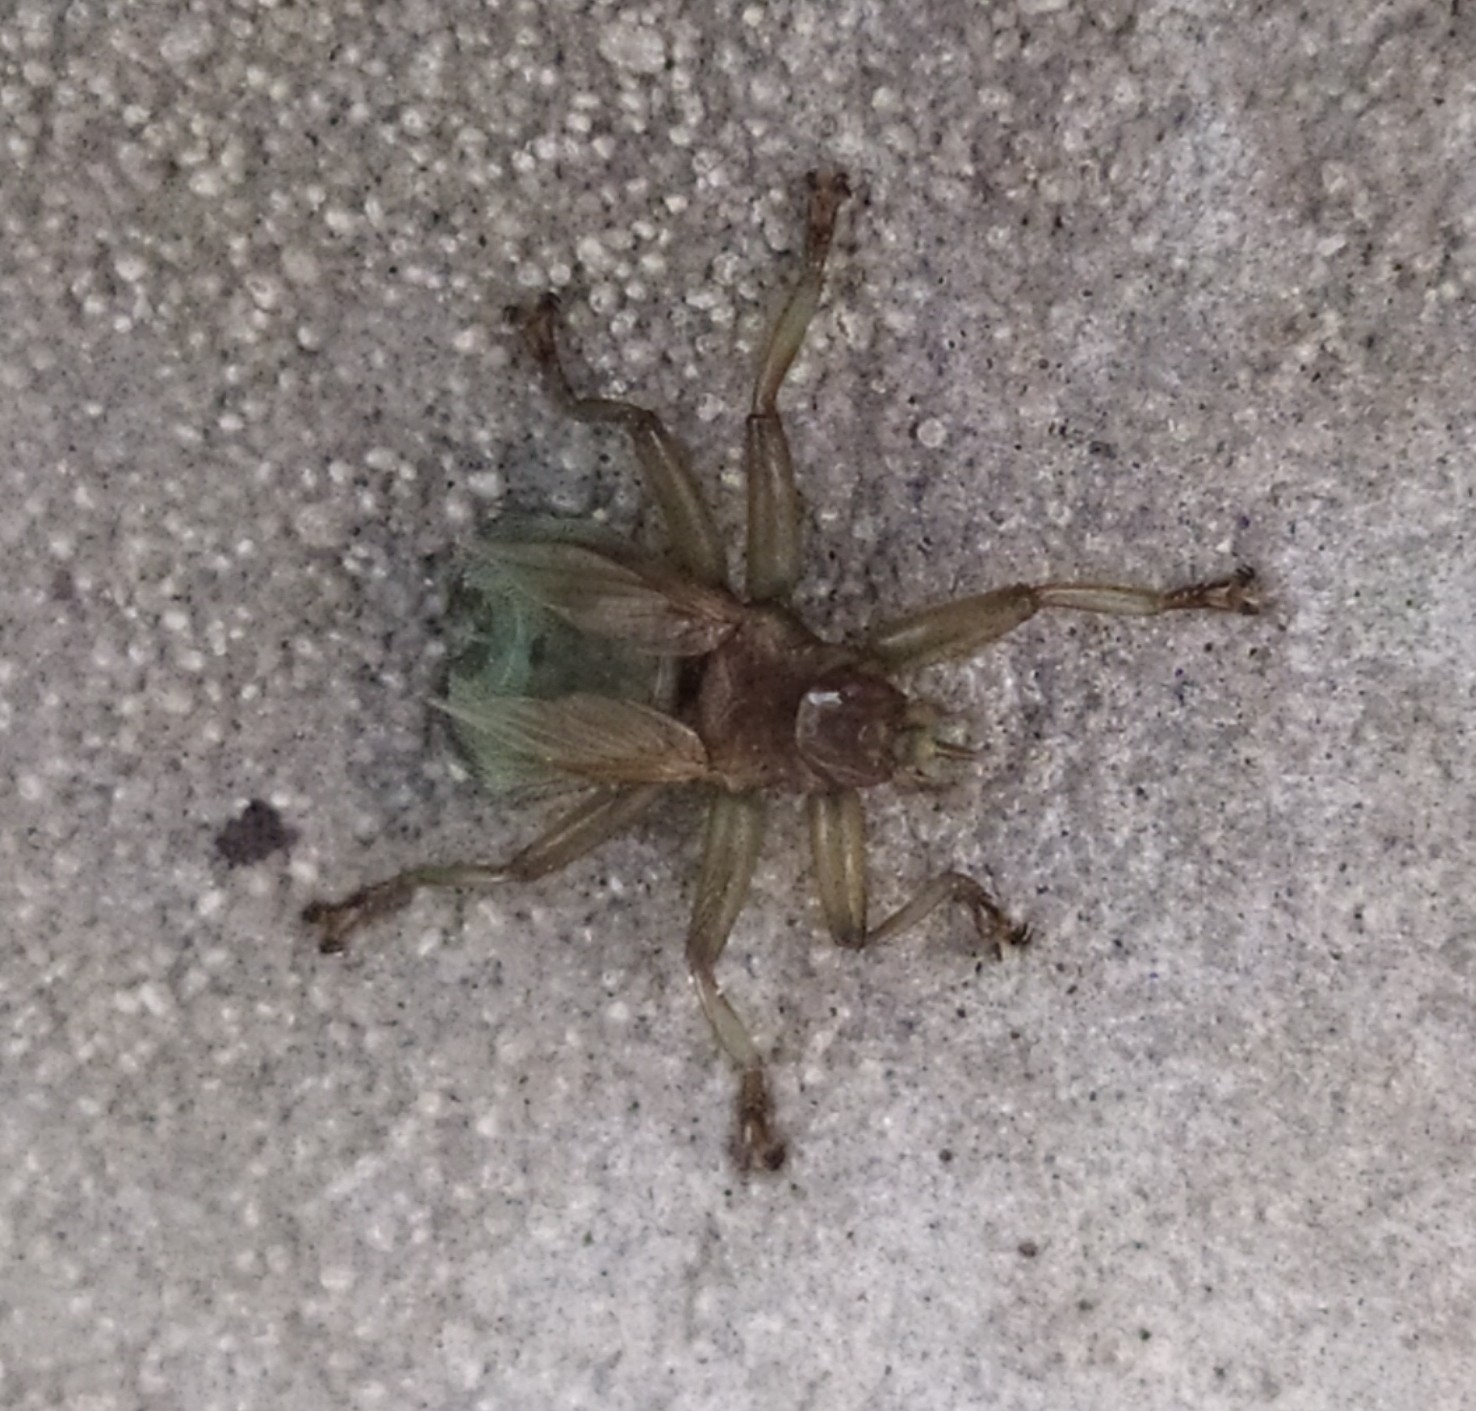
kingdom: Animalia
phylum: Arthropoda
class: Insecta
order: Diptera
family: Hippoboscidae
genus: Crataerina
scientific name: Crataerina pallida
